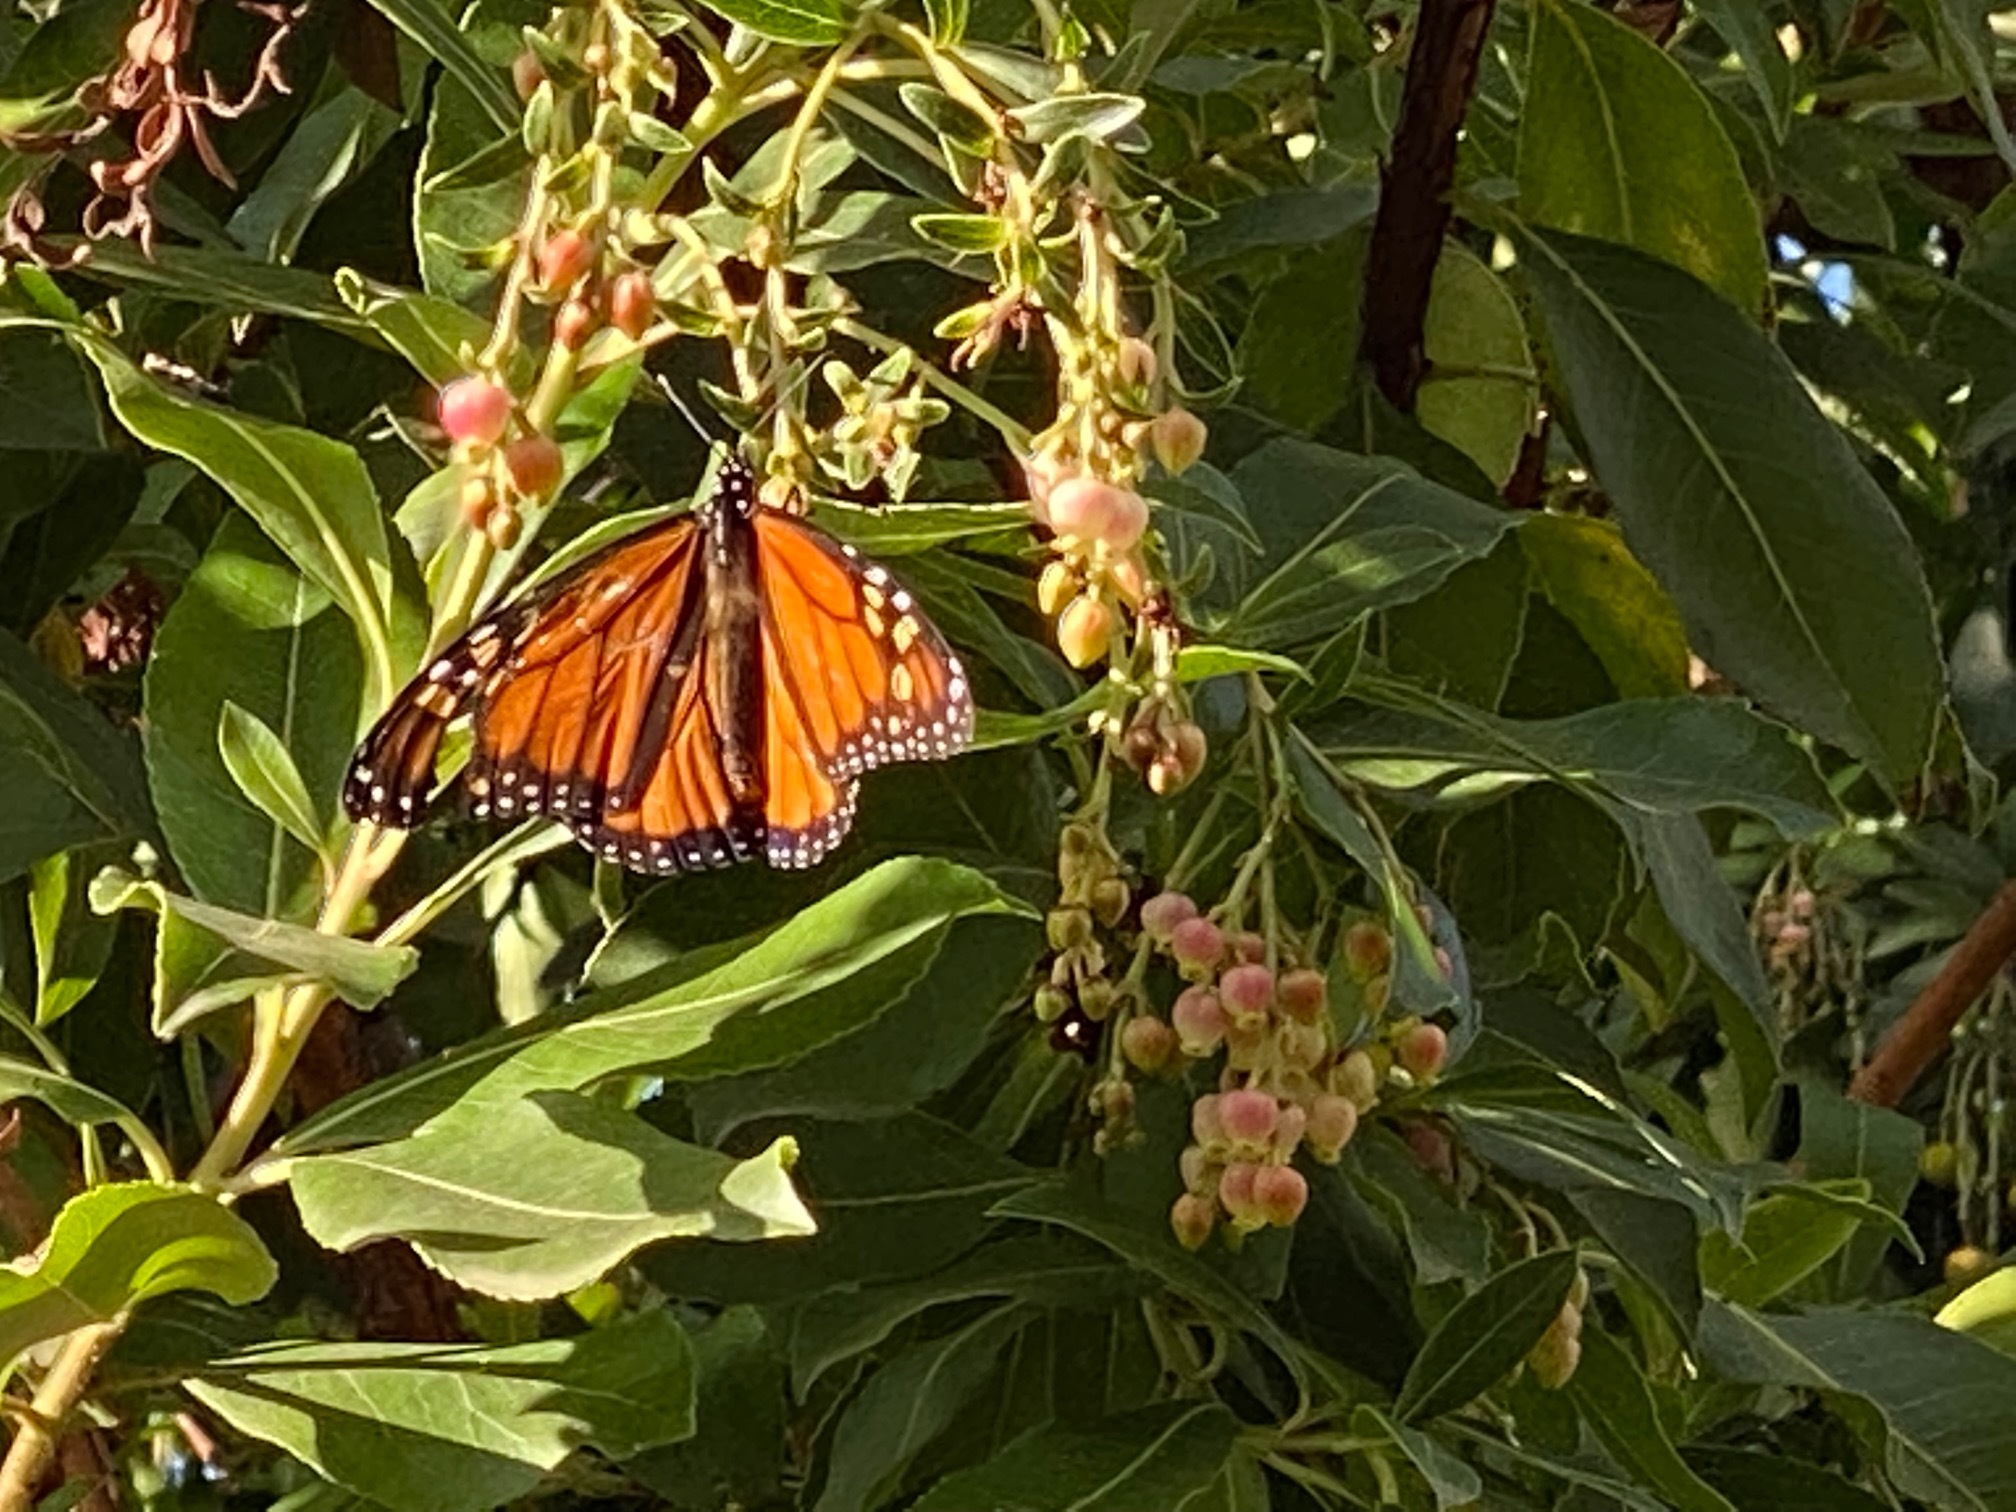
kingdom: Animalia
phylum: Arthropoda
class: Insecta
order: Lepidoptera
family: Nymphalidae
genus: Danaus
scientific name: Danaus plexippus
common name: Monarch
